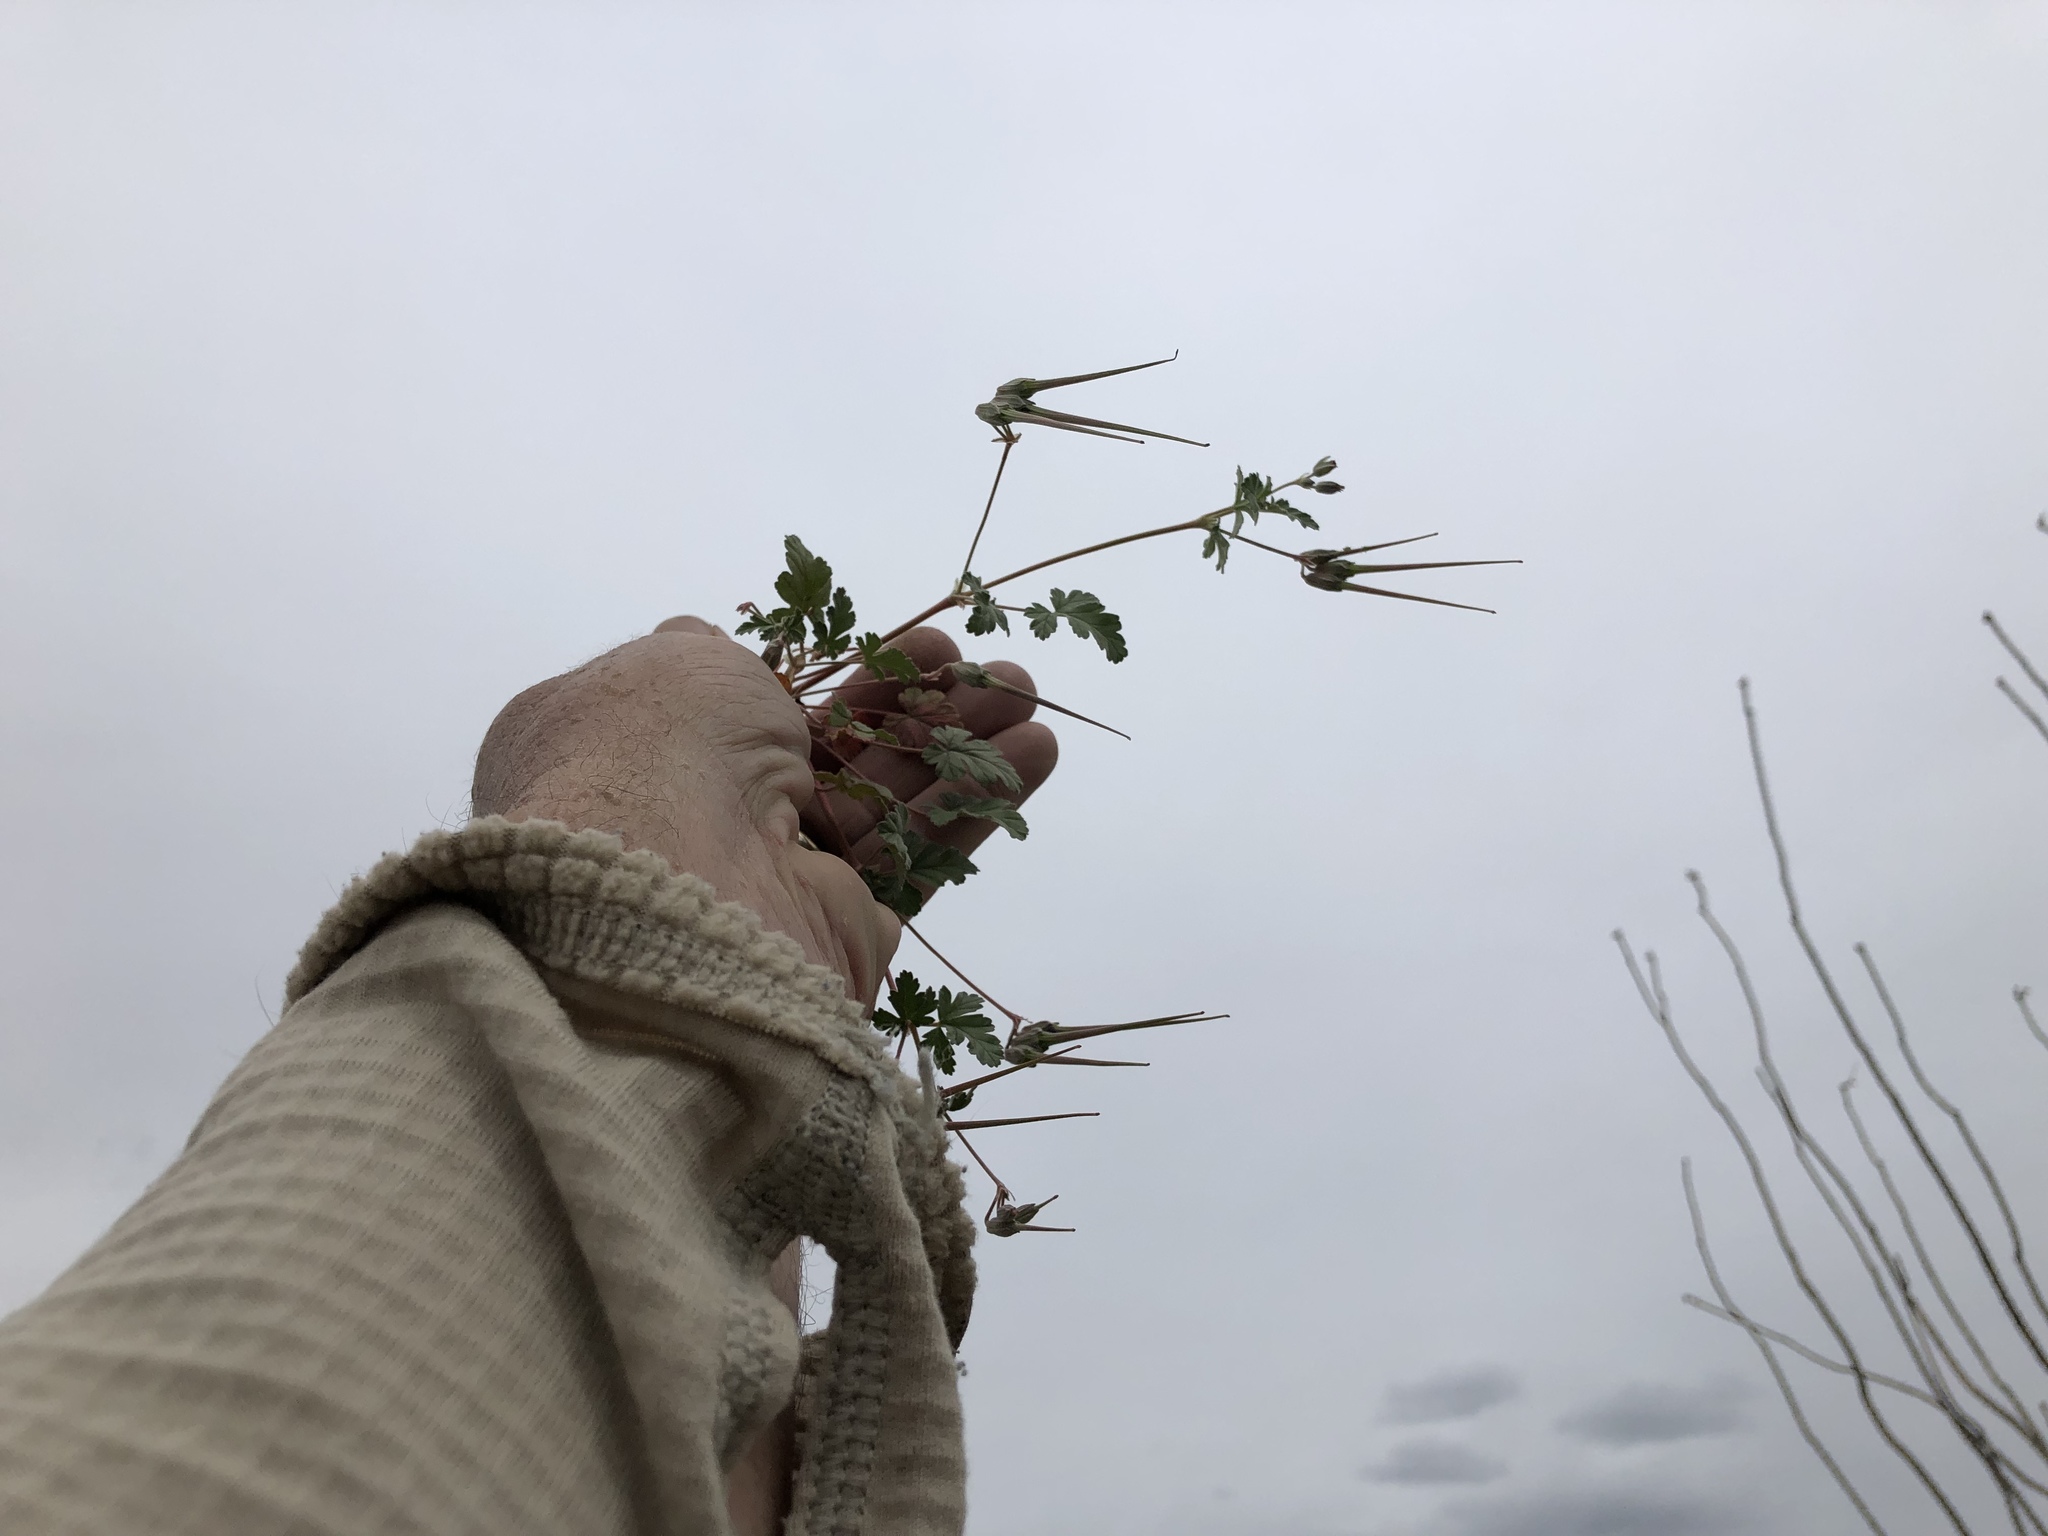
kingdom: Plantae
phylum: Tracheophyta
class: Magnoliopsida
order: Geraniales
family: Geraniaceae
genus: Erodium
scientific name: Erodium texanum
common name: Texas stork's-bill
